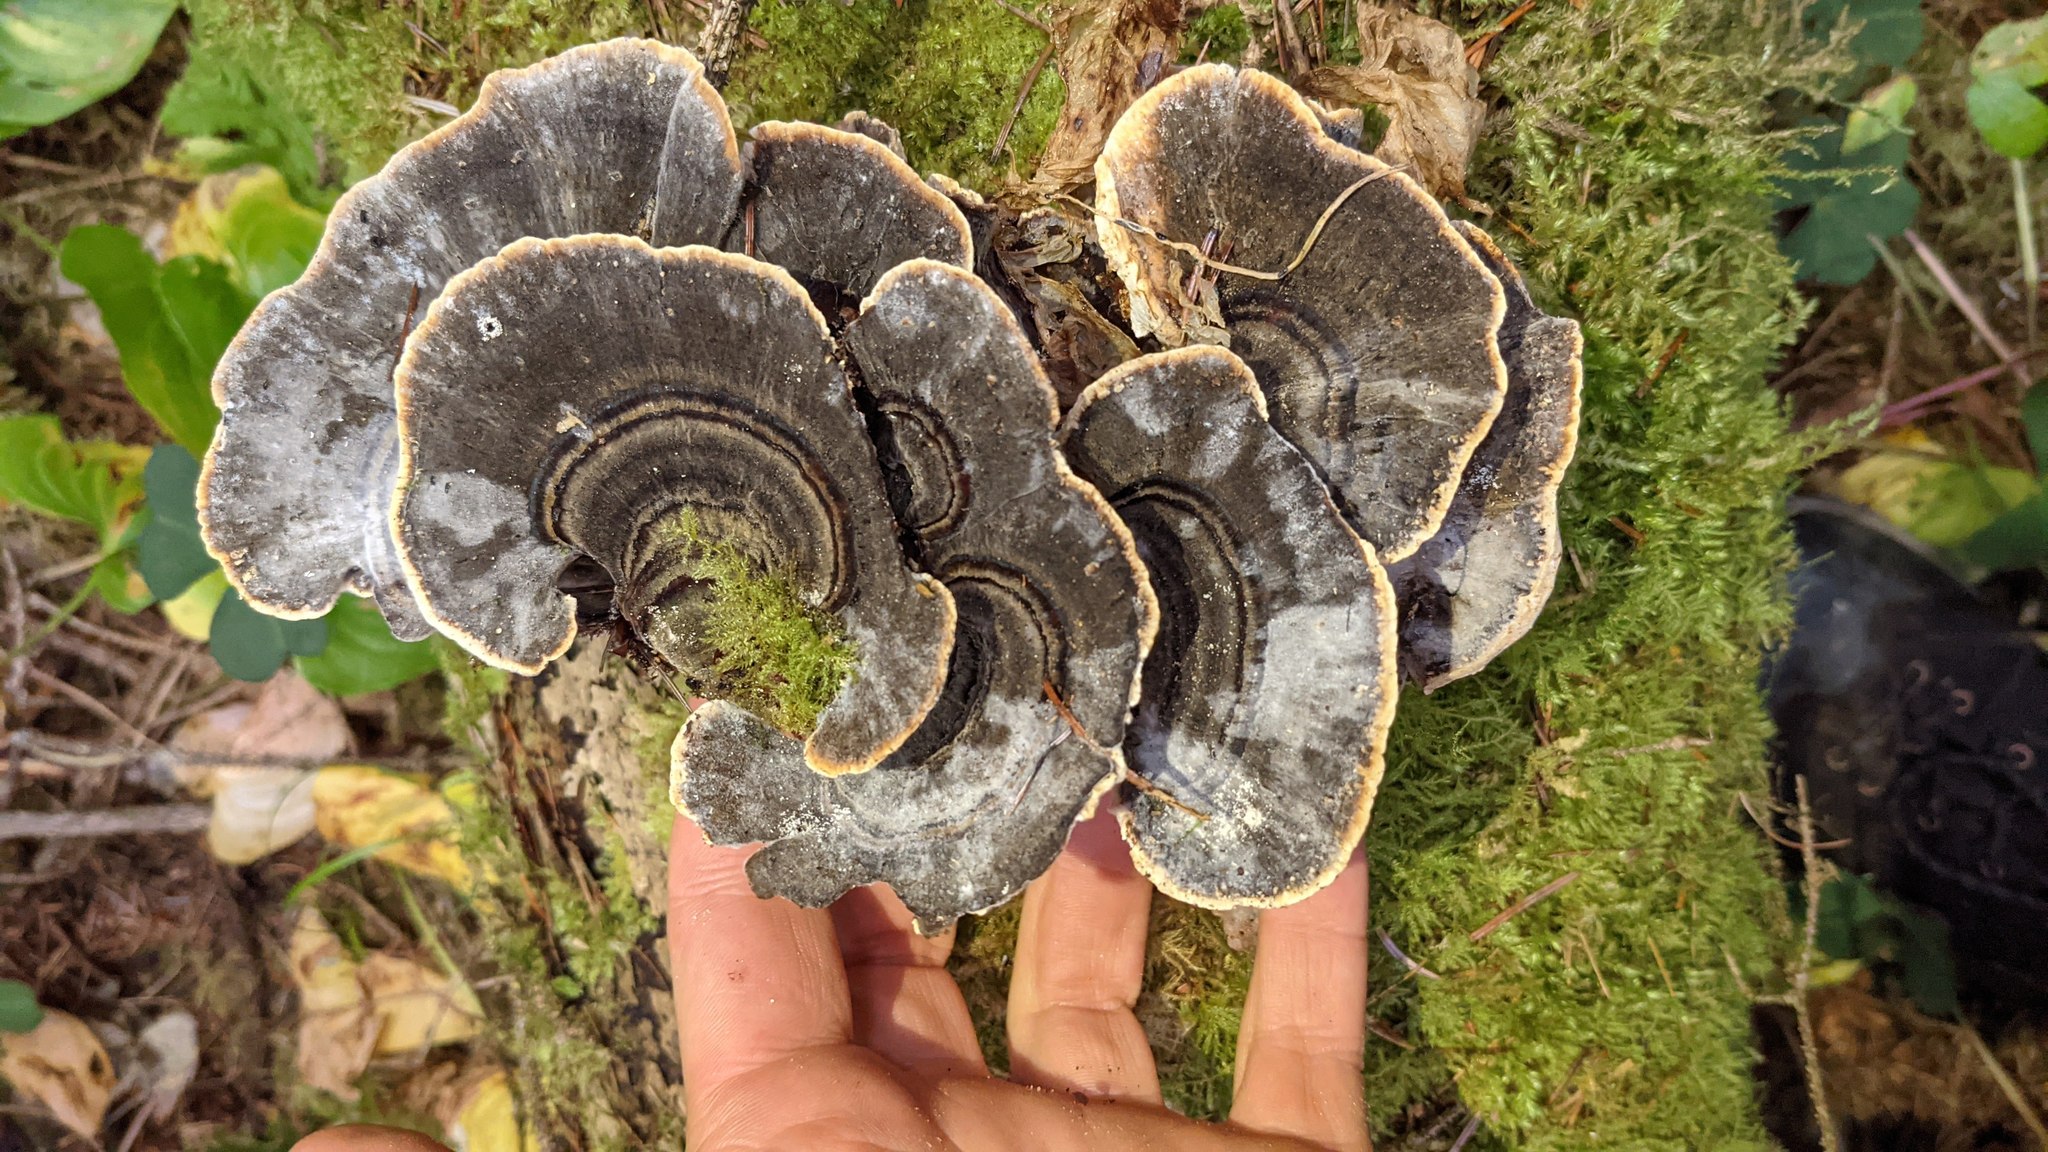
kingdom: Fungi
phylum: Basidiomycota
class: Agaricomycetes
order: Polyporales
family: Polyporaceae
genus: Trametes
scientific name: Trametes versicolor
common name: Turkeytail
